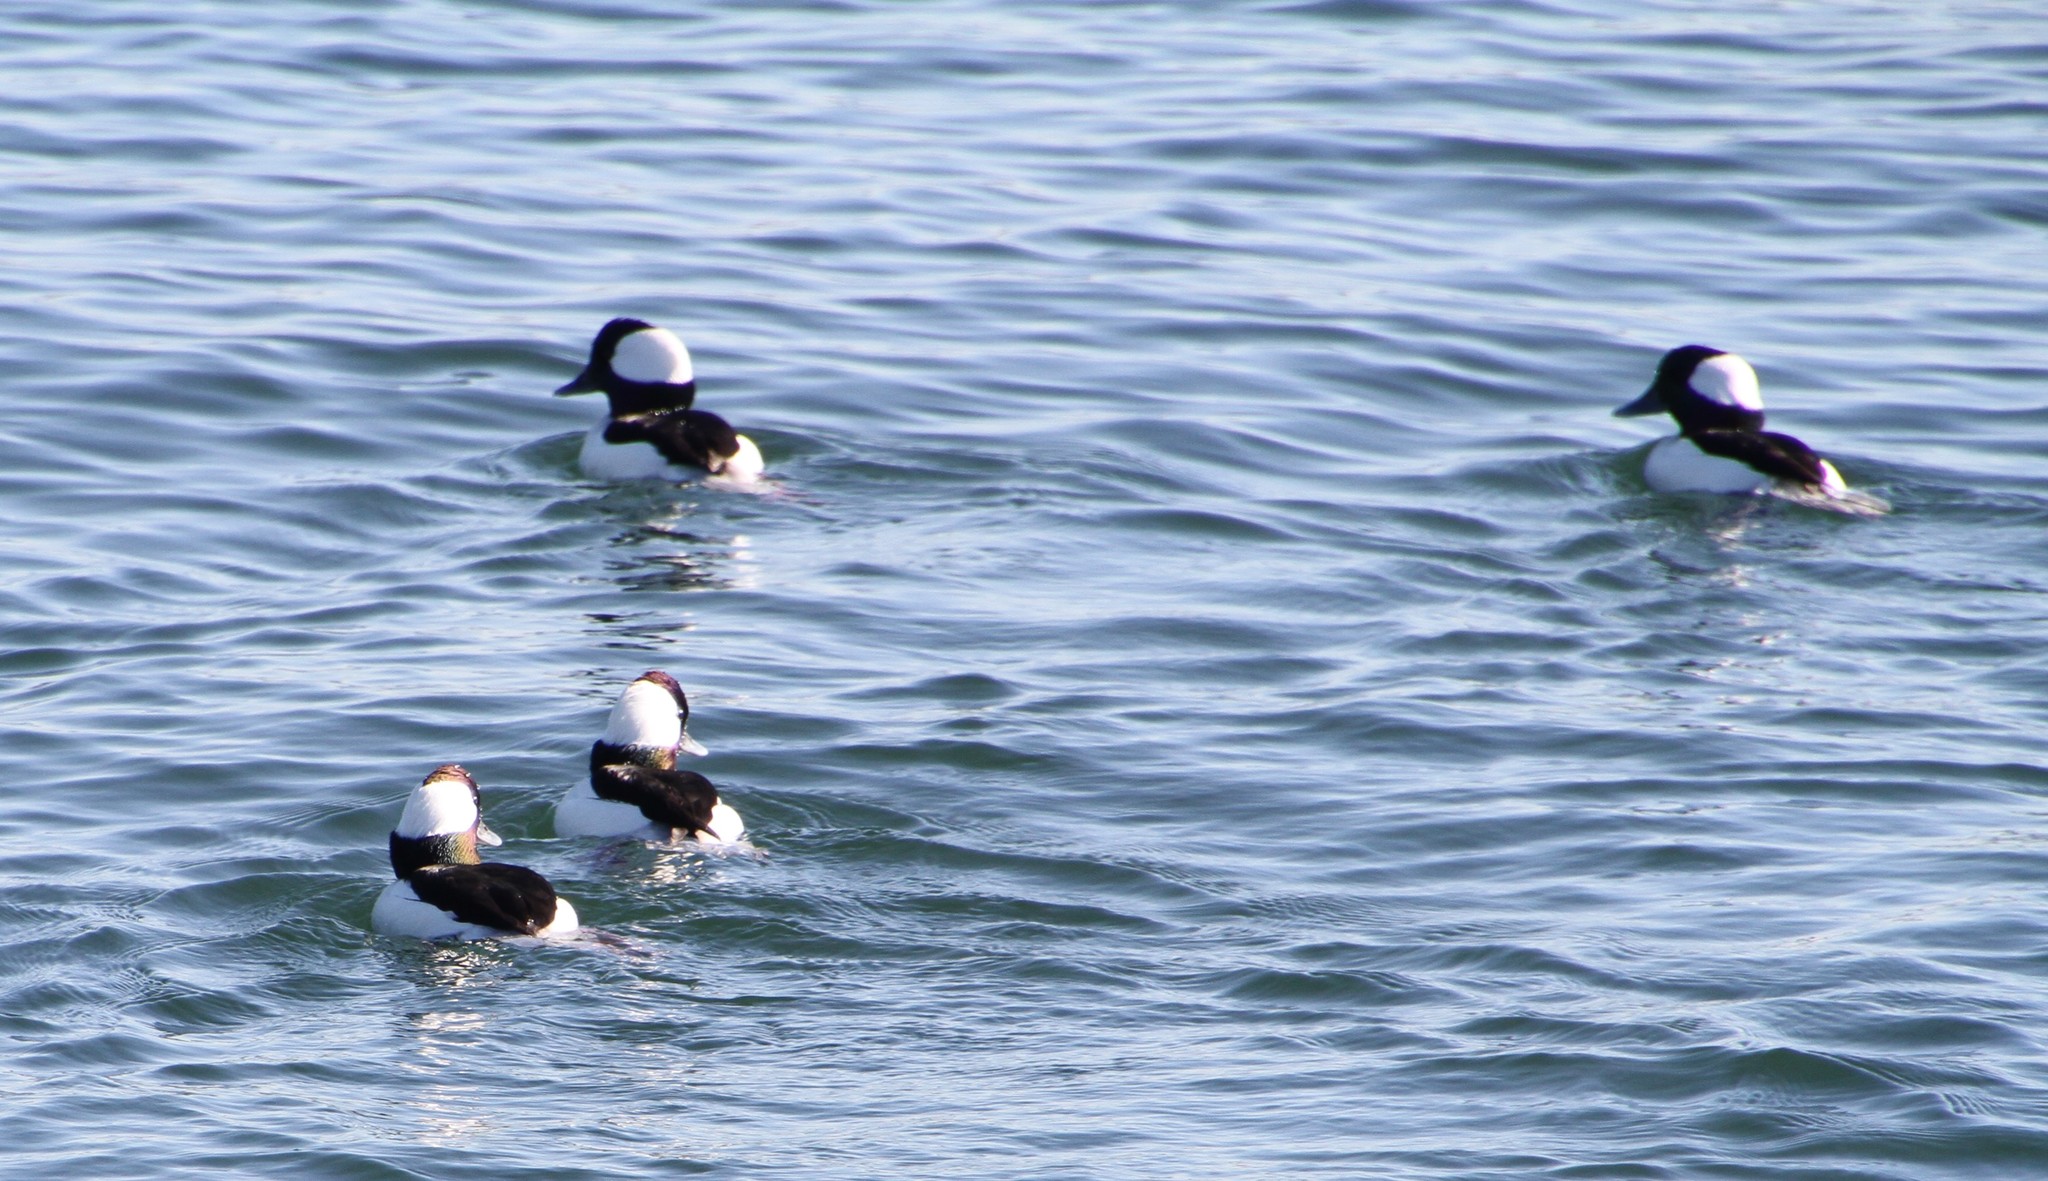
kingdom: Animalia
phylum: Chordata
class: Aves
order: Anseriformes
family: Anatidae
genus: Bucephala
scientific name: Bucephala albeola
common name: Bufflehead
